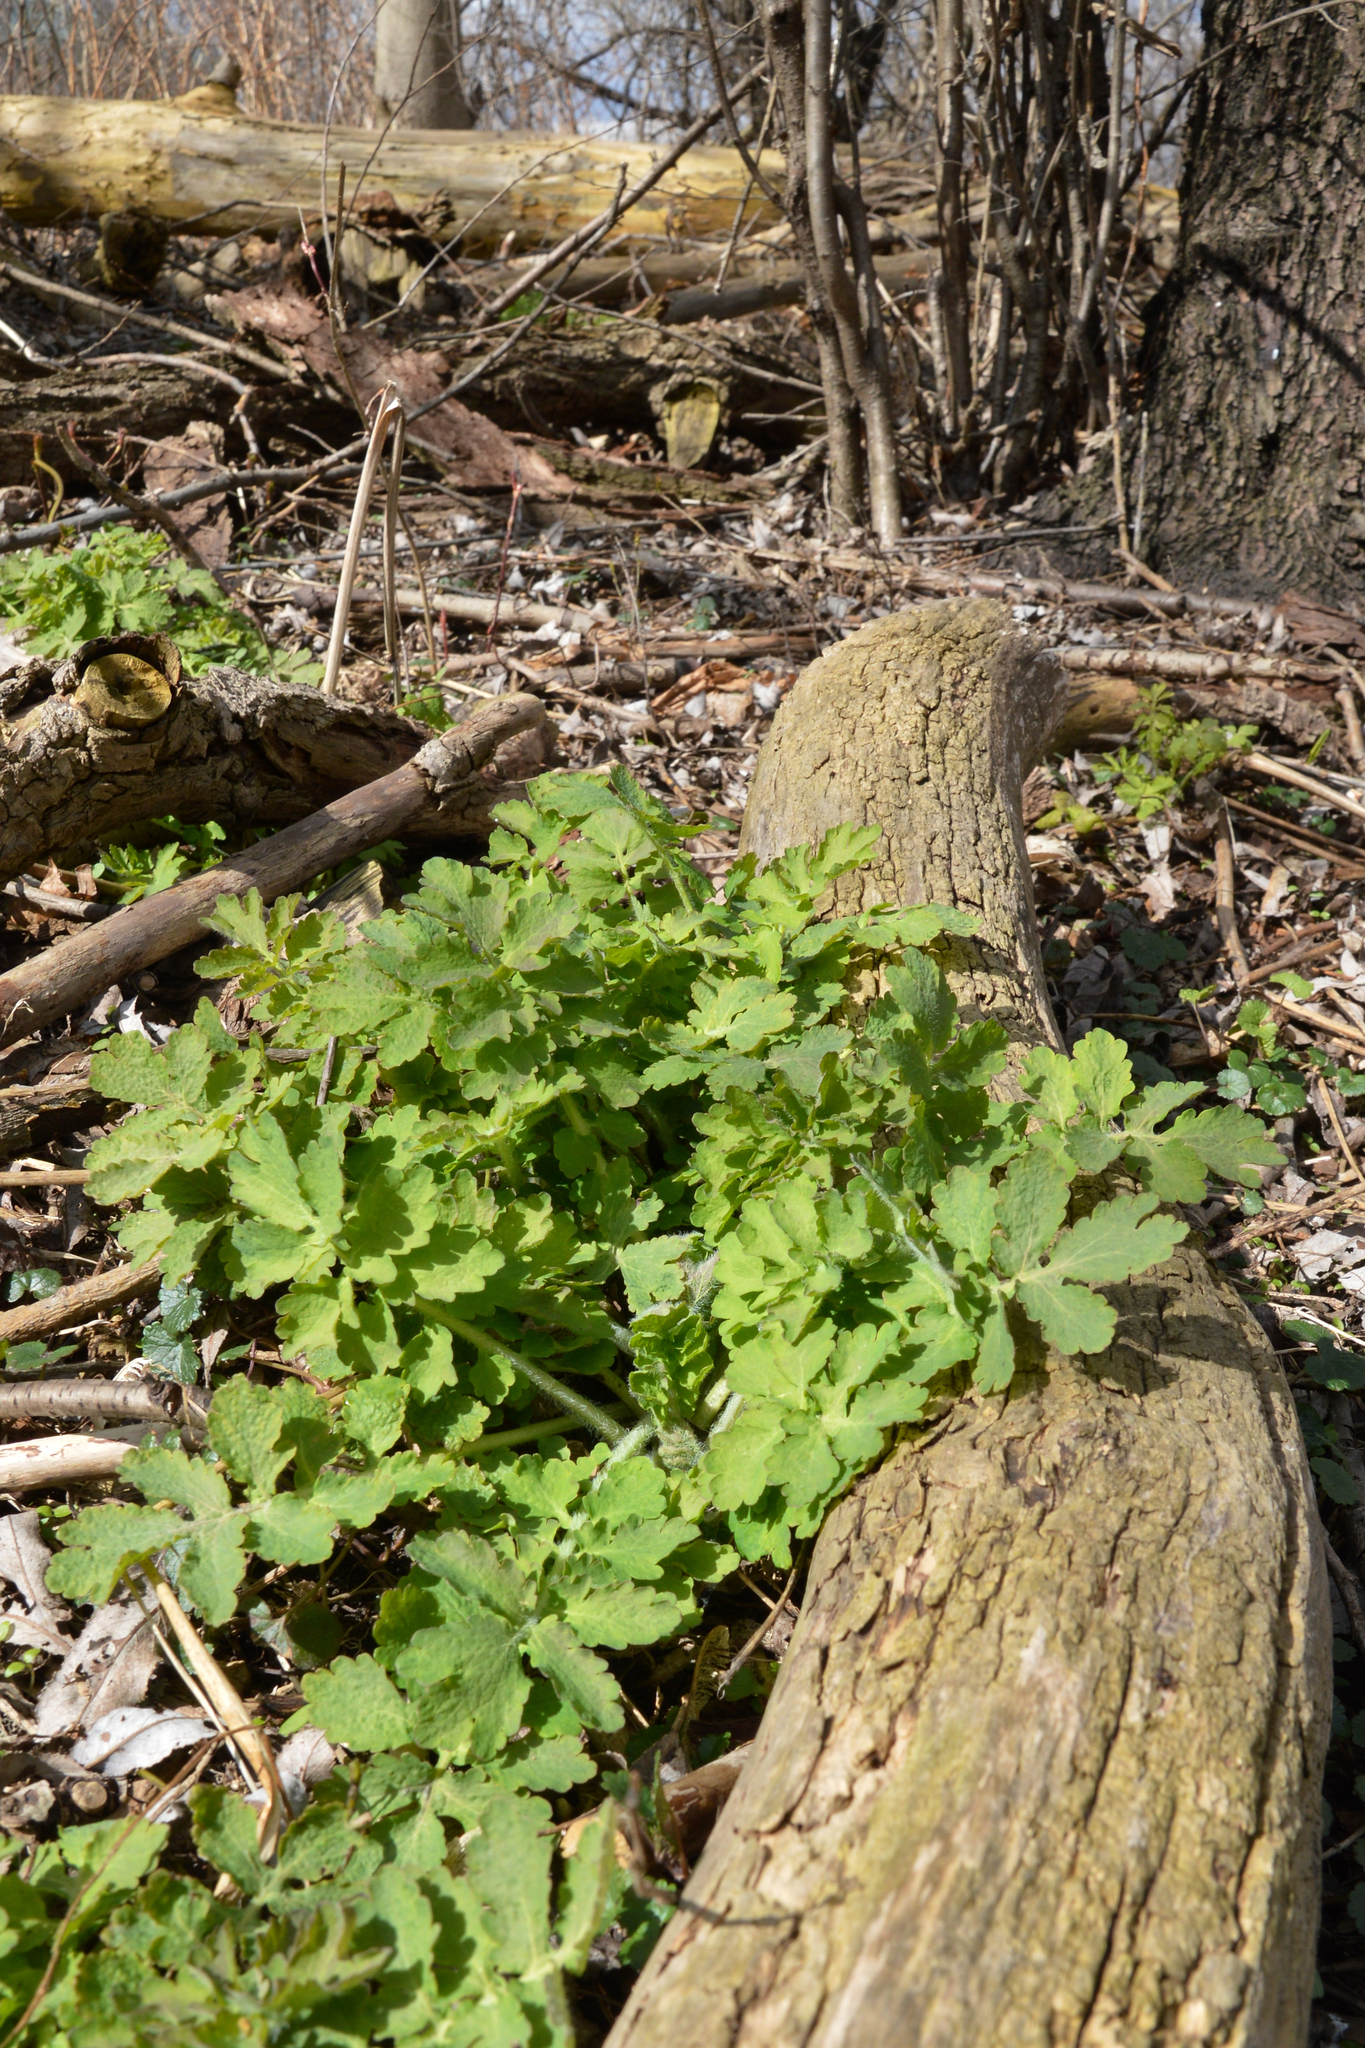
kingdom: Plantae
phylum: Tracheophyta
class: Magnoliopsida
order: Ranunculales
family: Papaveraceae
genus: Chelidonium
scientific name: Chelidonium majus
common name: Greater celandine
